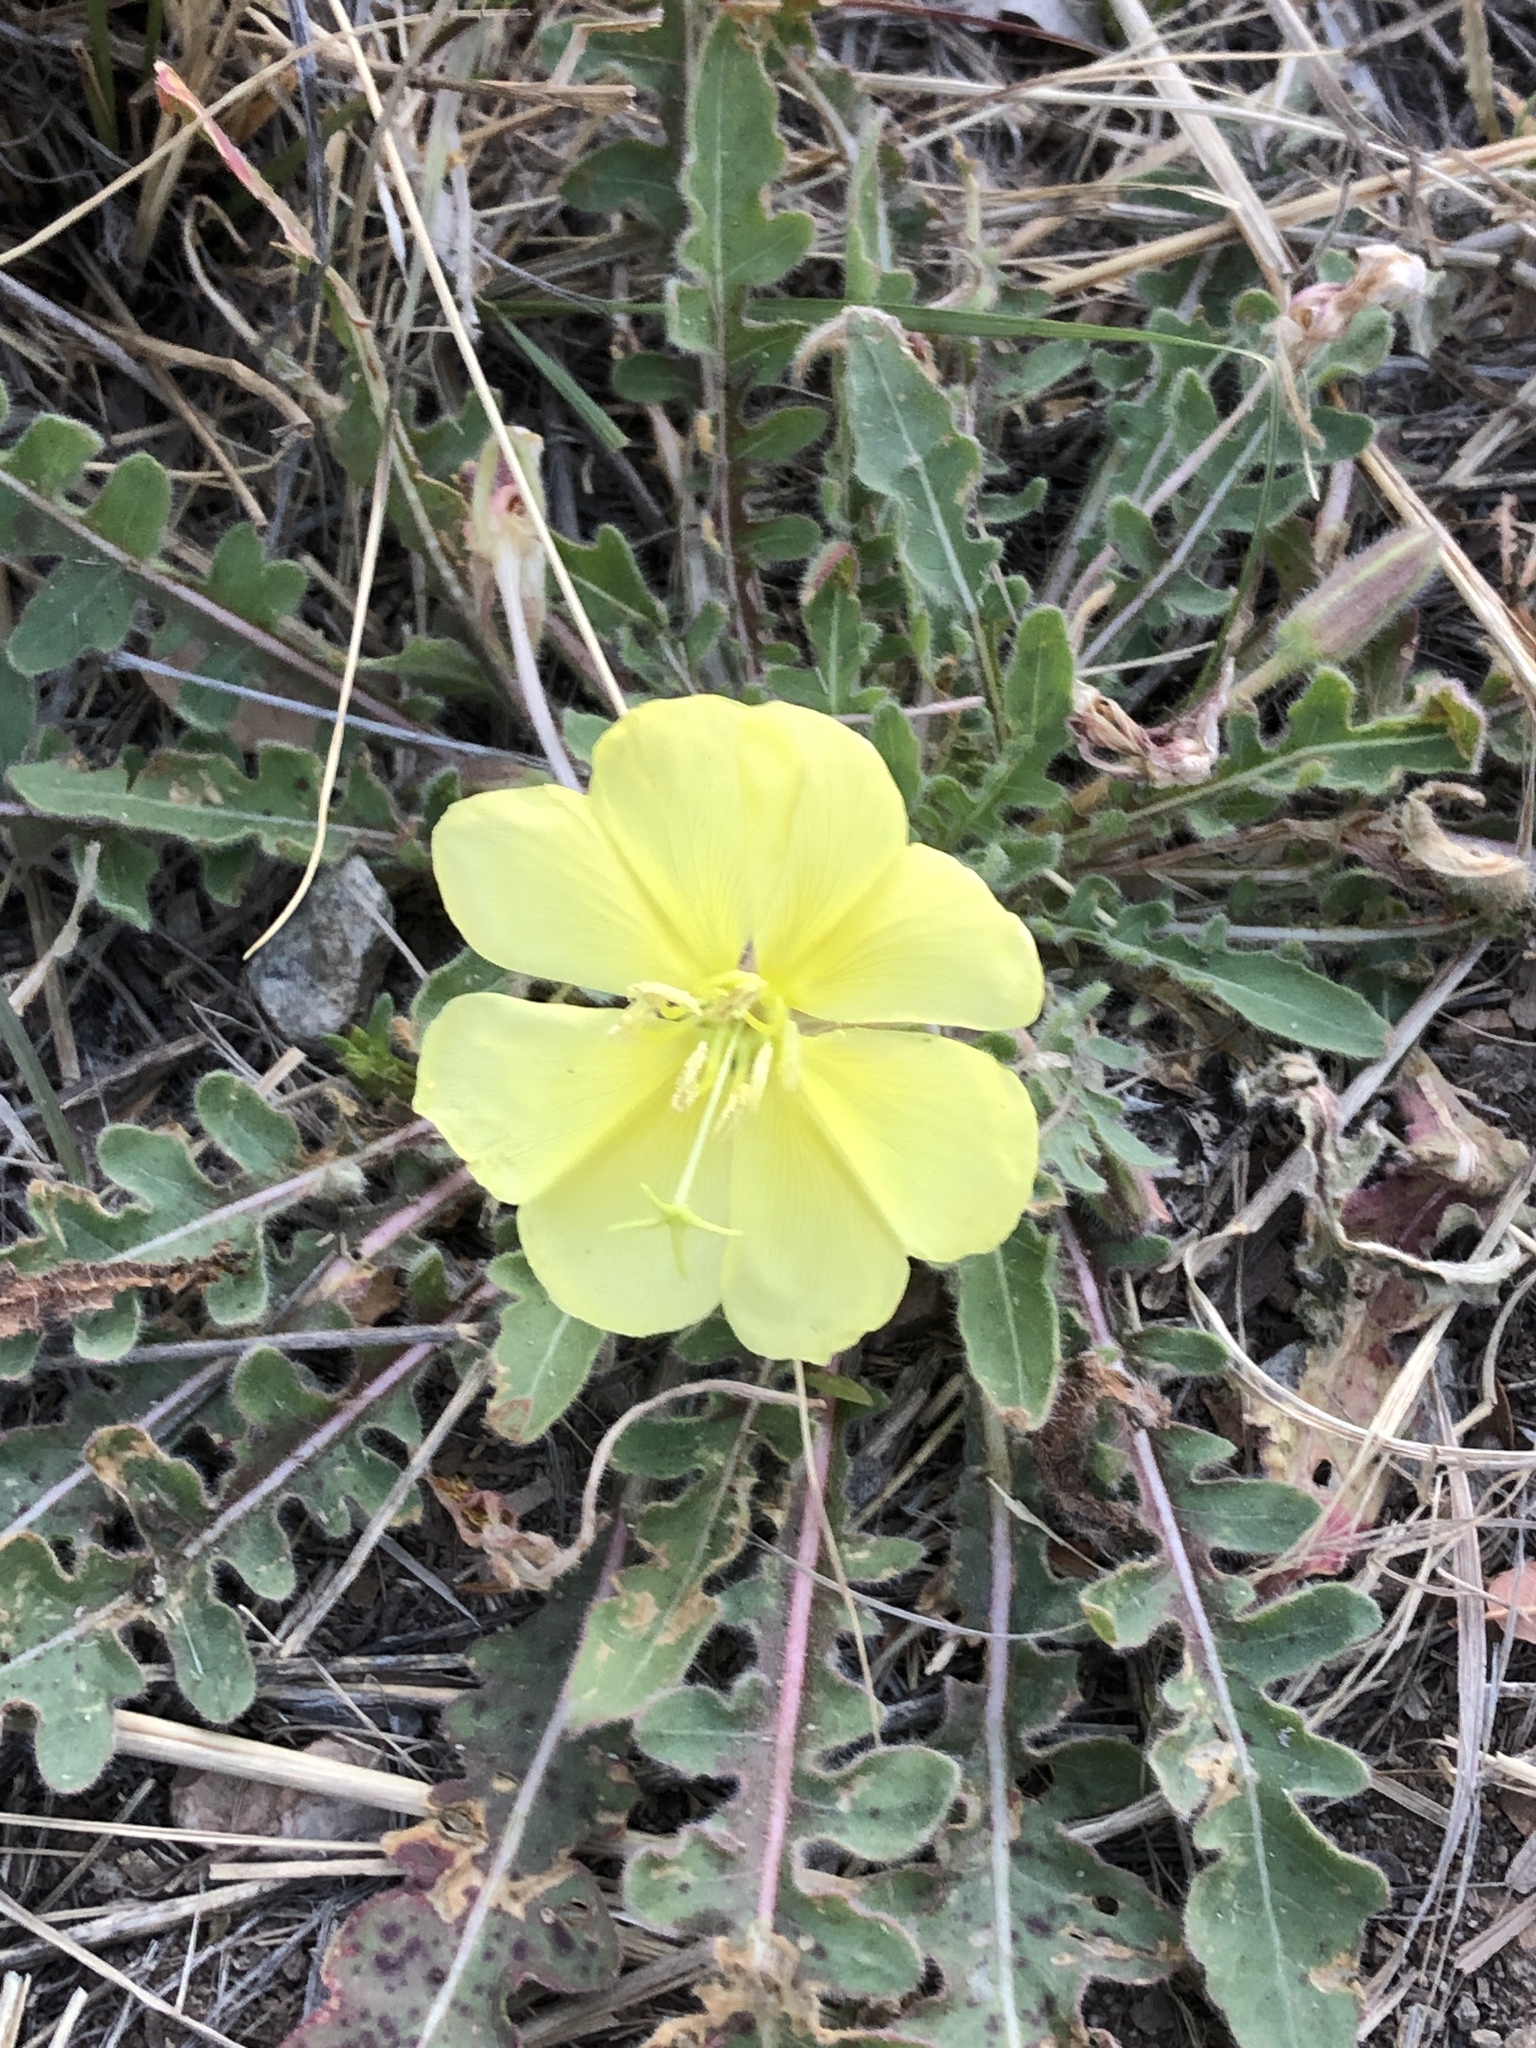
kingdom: Plantae
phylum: Tracheophyta
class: Magnoliopsida
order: Myrtales
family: Onagraceae
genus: Oenothera
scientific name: Oenothera primiveris
